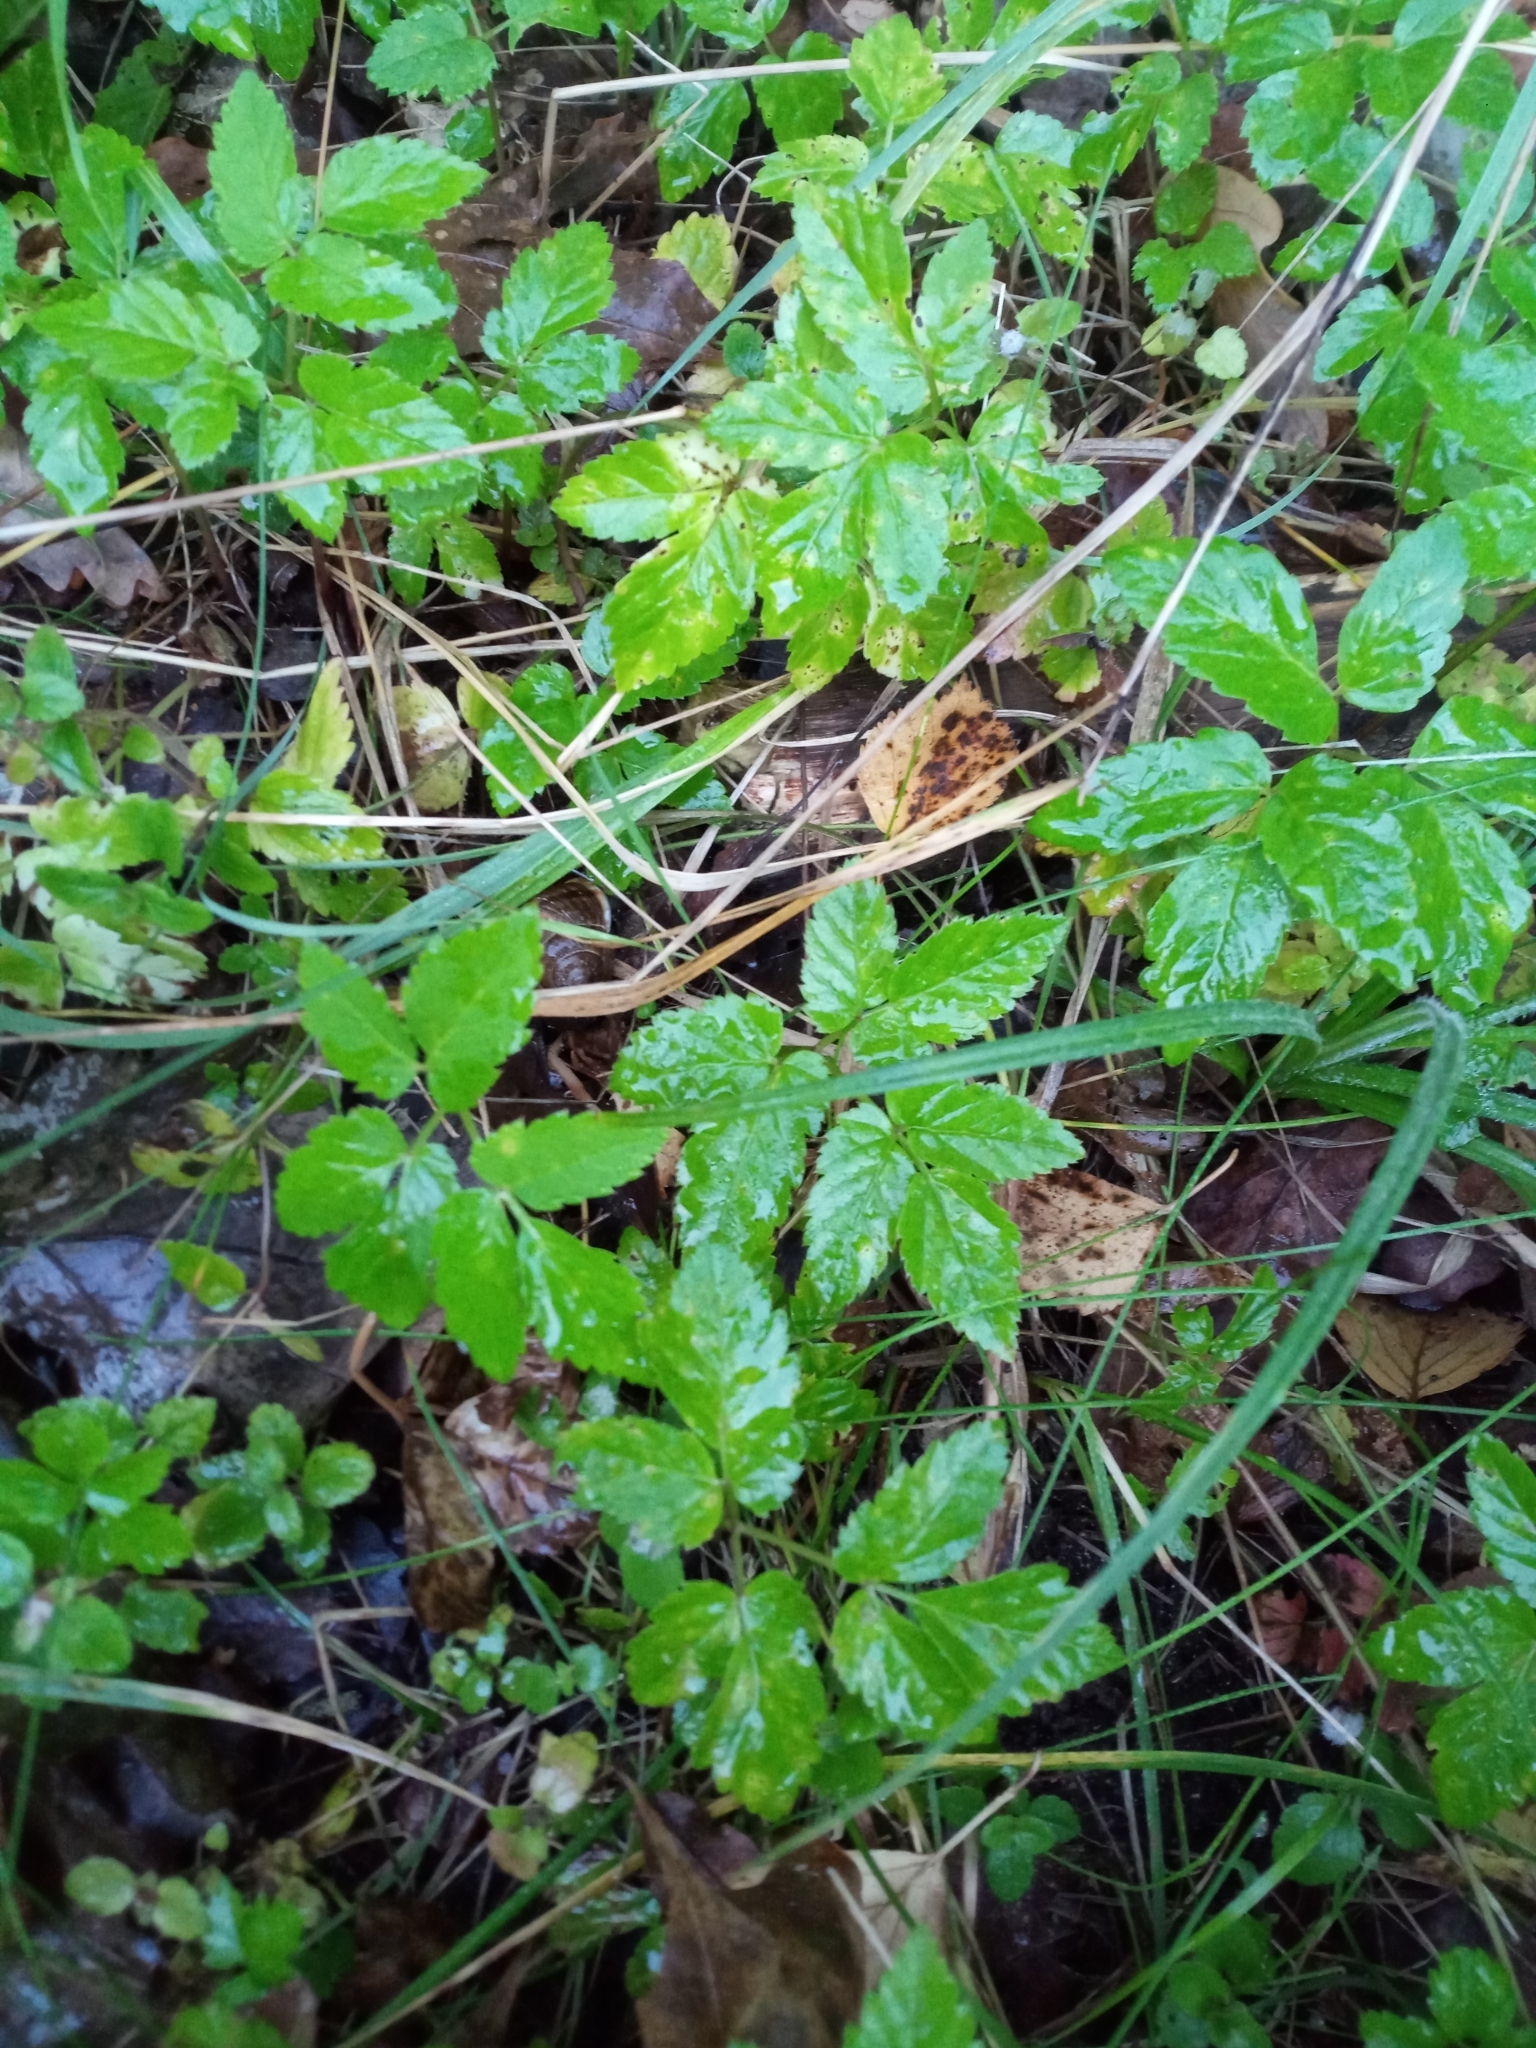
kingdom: Plantae
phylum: Tracheophyta
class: Magnoliopsida
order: Apiales
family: Apiaceae
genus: Aegopodium
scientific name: Aegopodium podagraria
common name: Ground-elder
